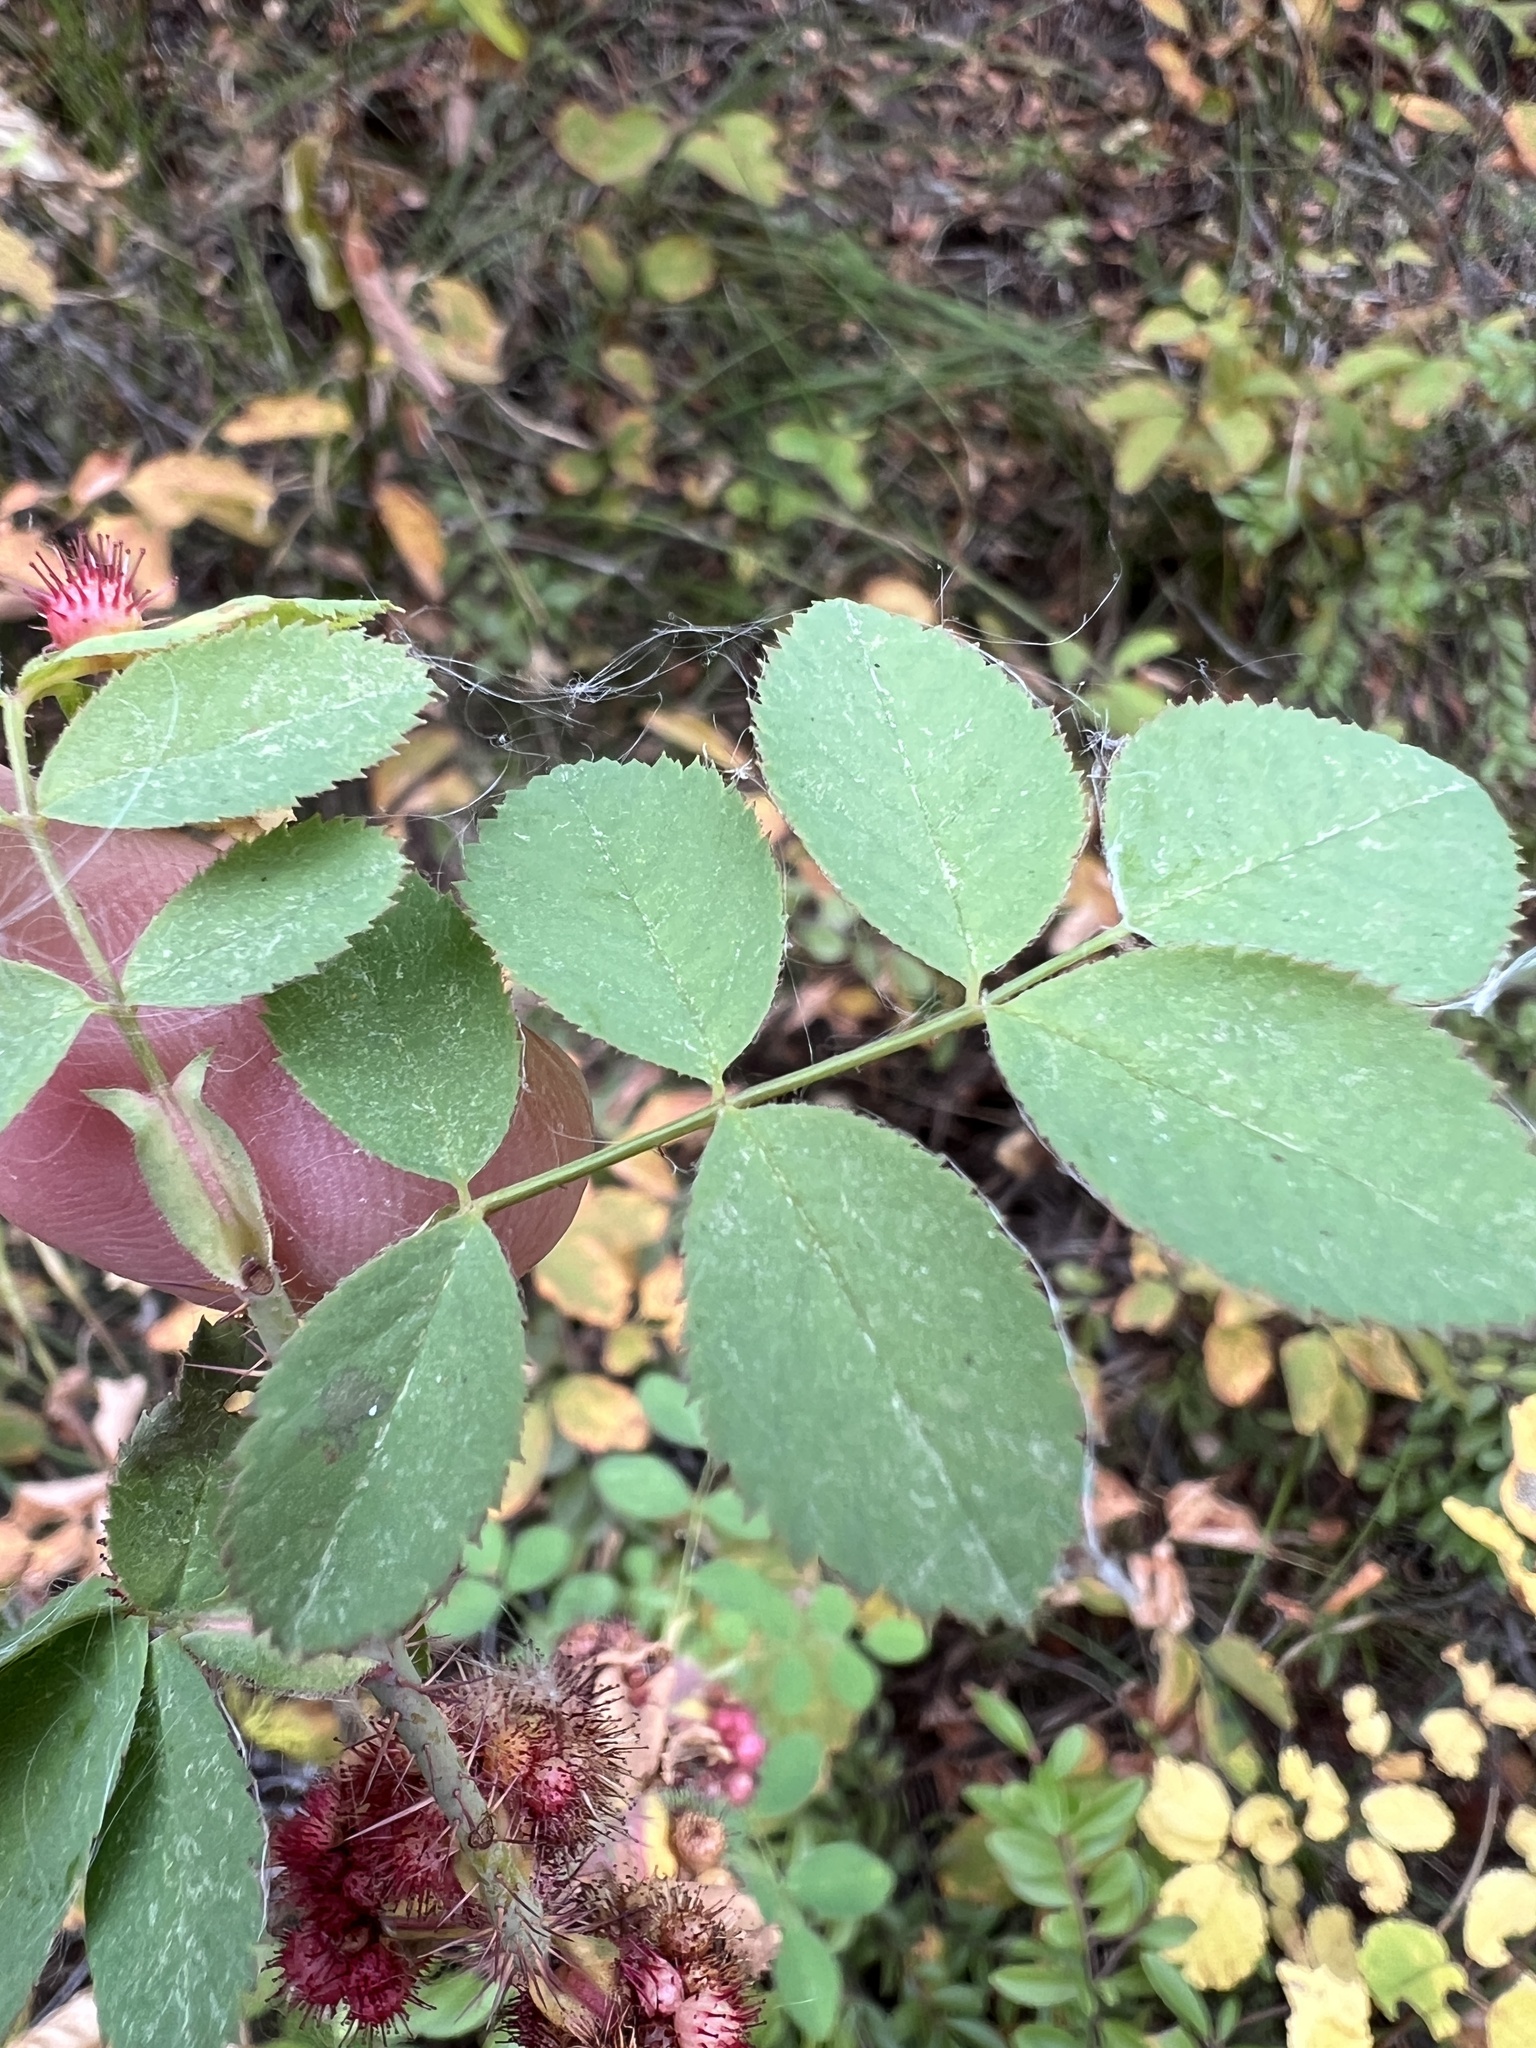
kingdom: Animalia
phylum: Arthropoda
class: Insecta
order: Hymenoptera
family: Cynipidae
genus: Diplolepis
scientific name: Diplolepis polita
